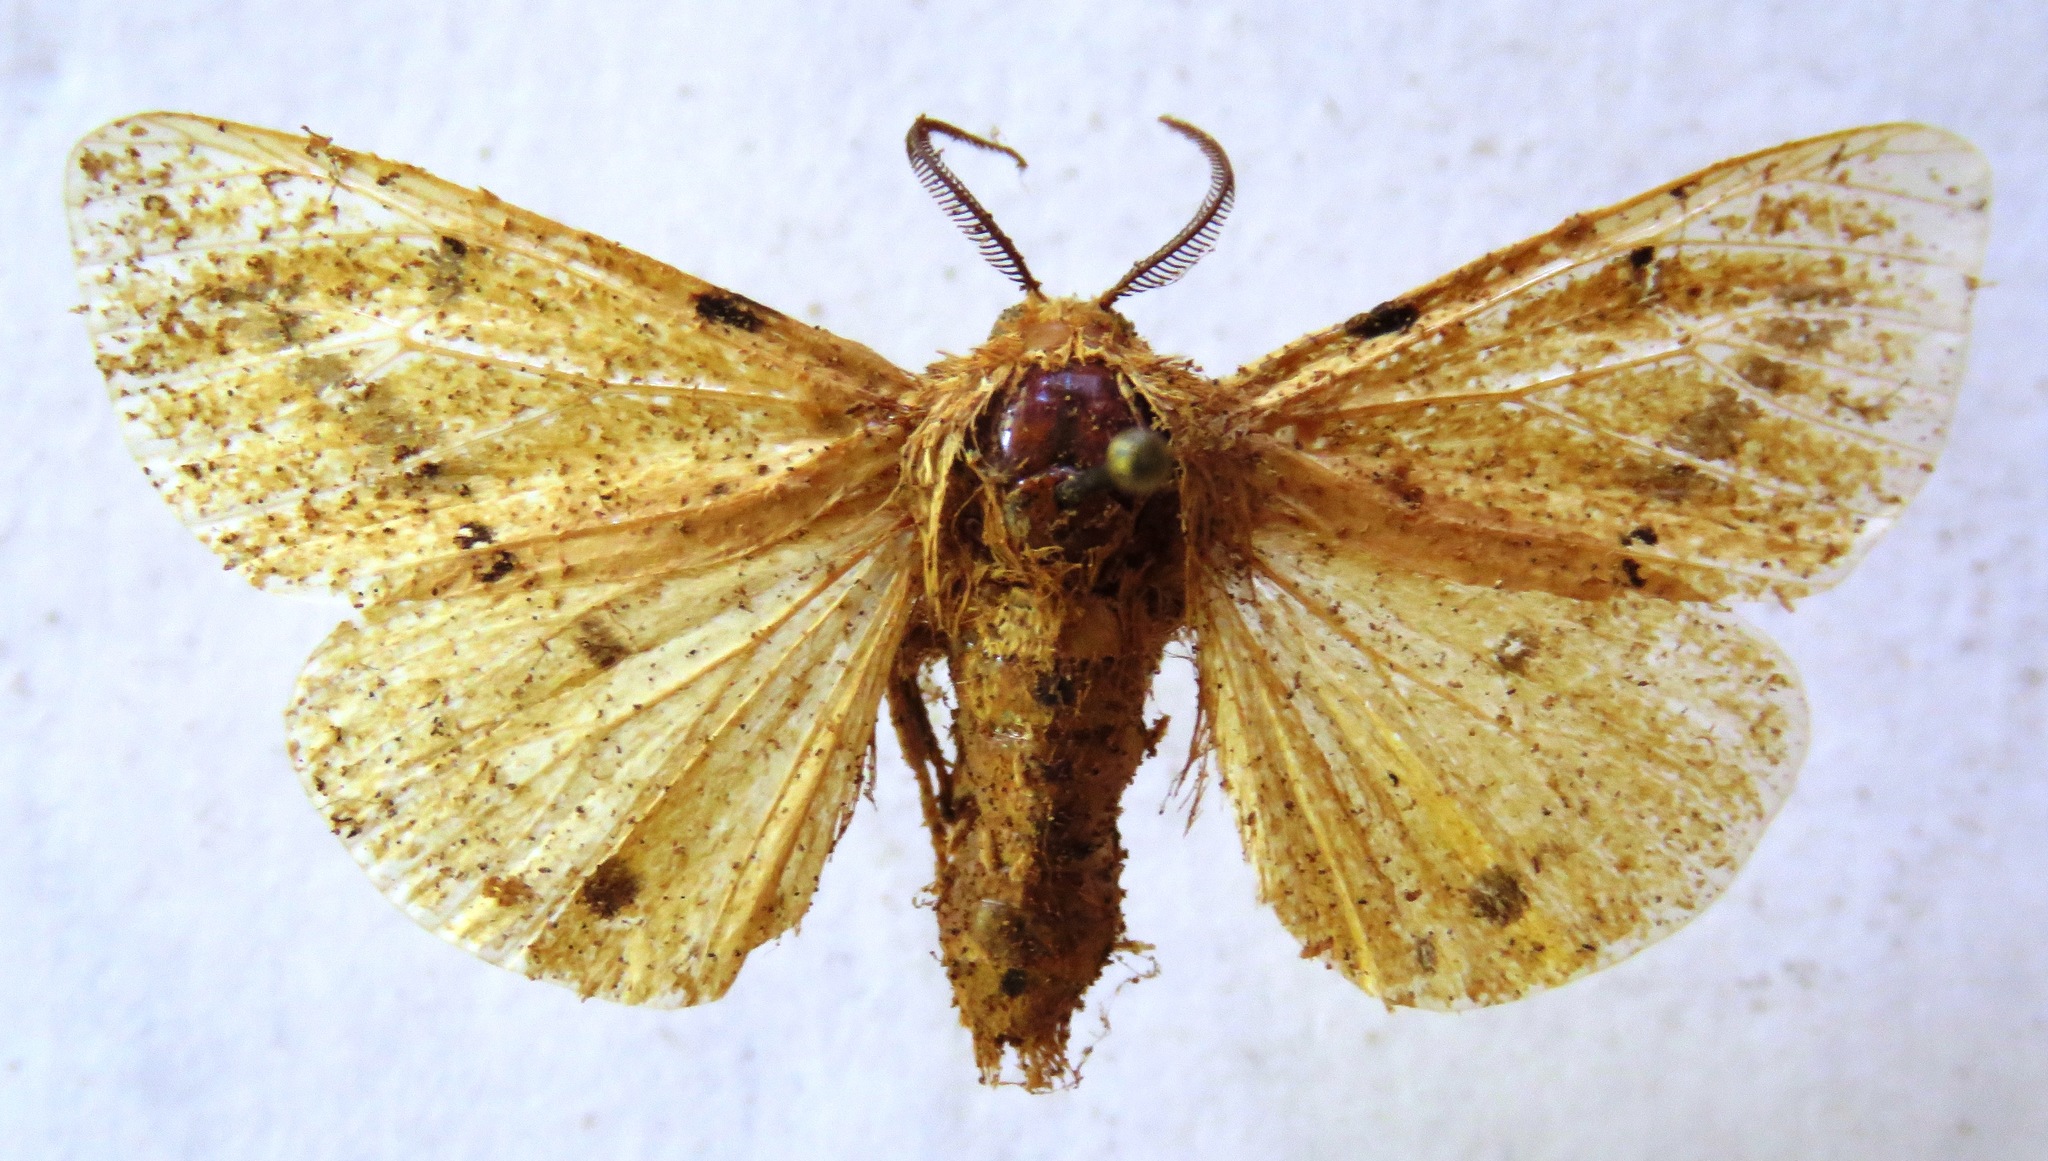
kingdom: Animalia
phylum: Arthropoda
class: Insecta
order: Lepidoptera
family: Erebidae
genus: Spilarctia
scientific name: Spilarctia lutea
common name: Buff ermine
